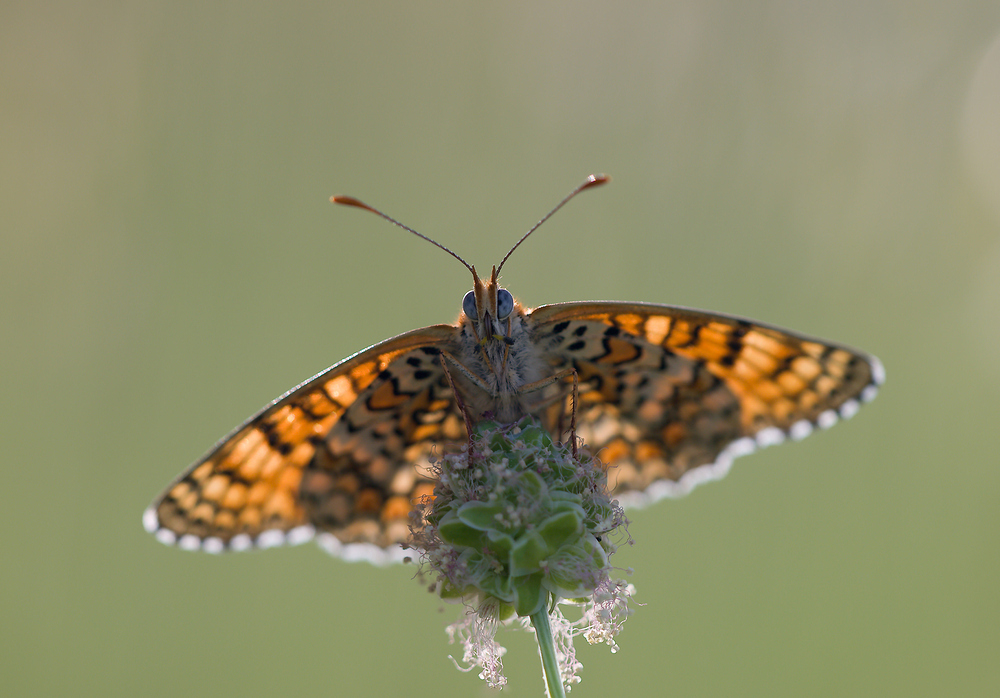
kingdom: Animalia
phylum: Arthropoda
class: Insecta
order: Lepidoptera
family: Nymphalidae
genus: Melitaea
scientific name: Melitaea phoebe
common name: Knapweed fritillary
